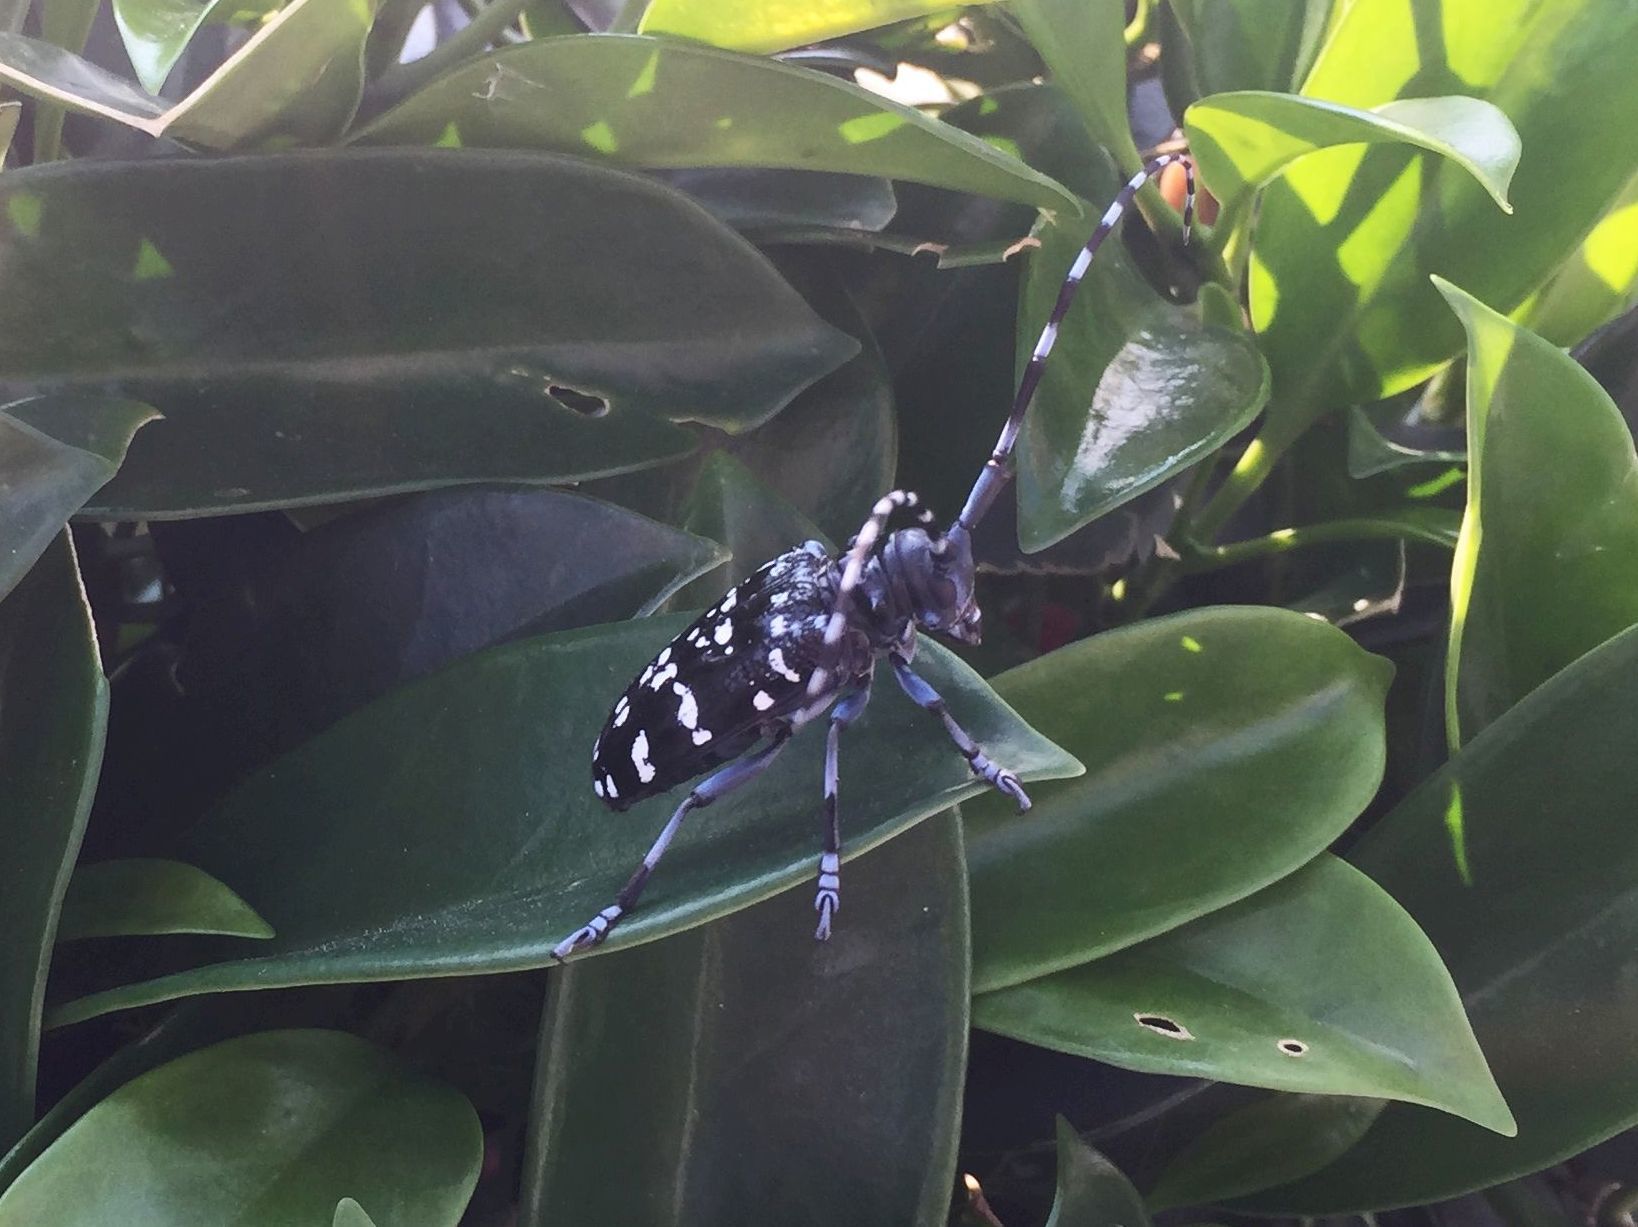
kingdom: Animalia
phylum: Arthropoda
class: Insecta
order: Coleoptera
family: Cerambycidae
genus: Anoplophora
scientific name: Anoplophora chinensis
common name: Citrus longhorned beetle
